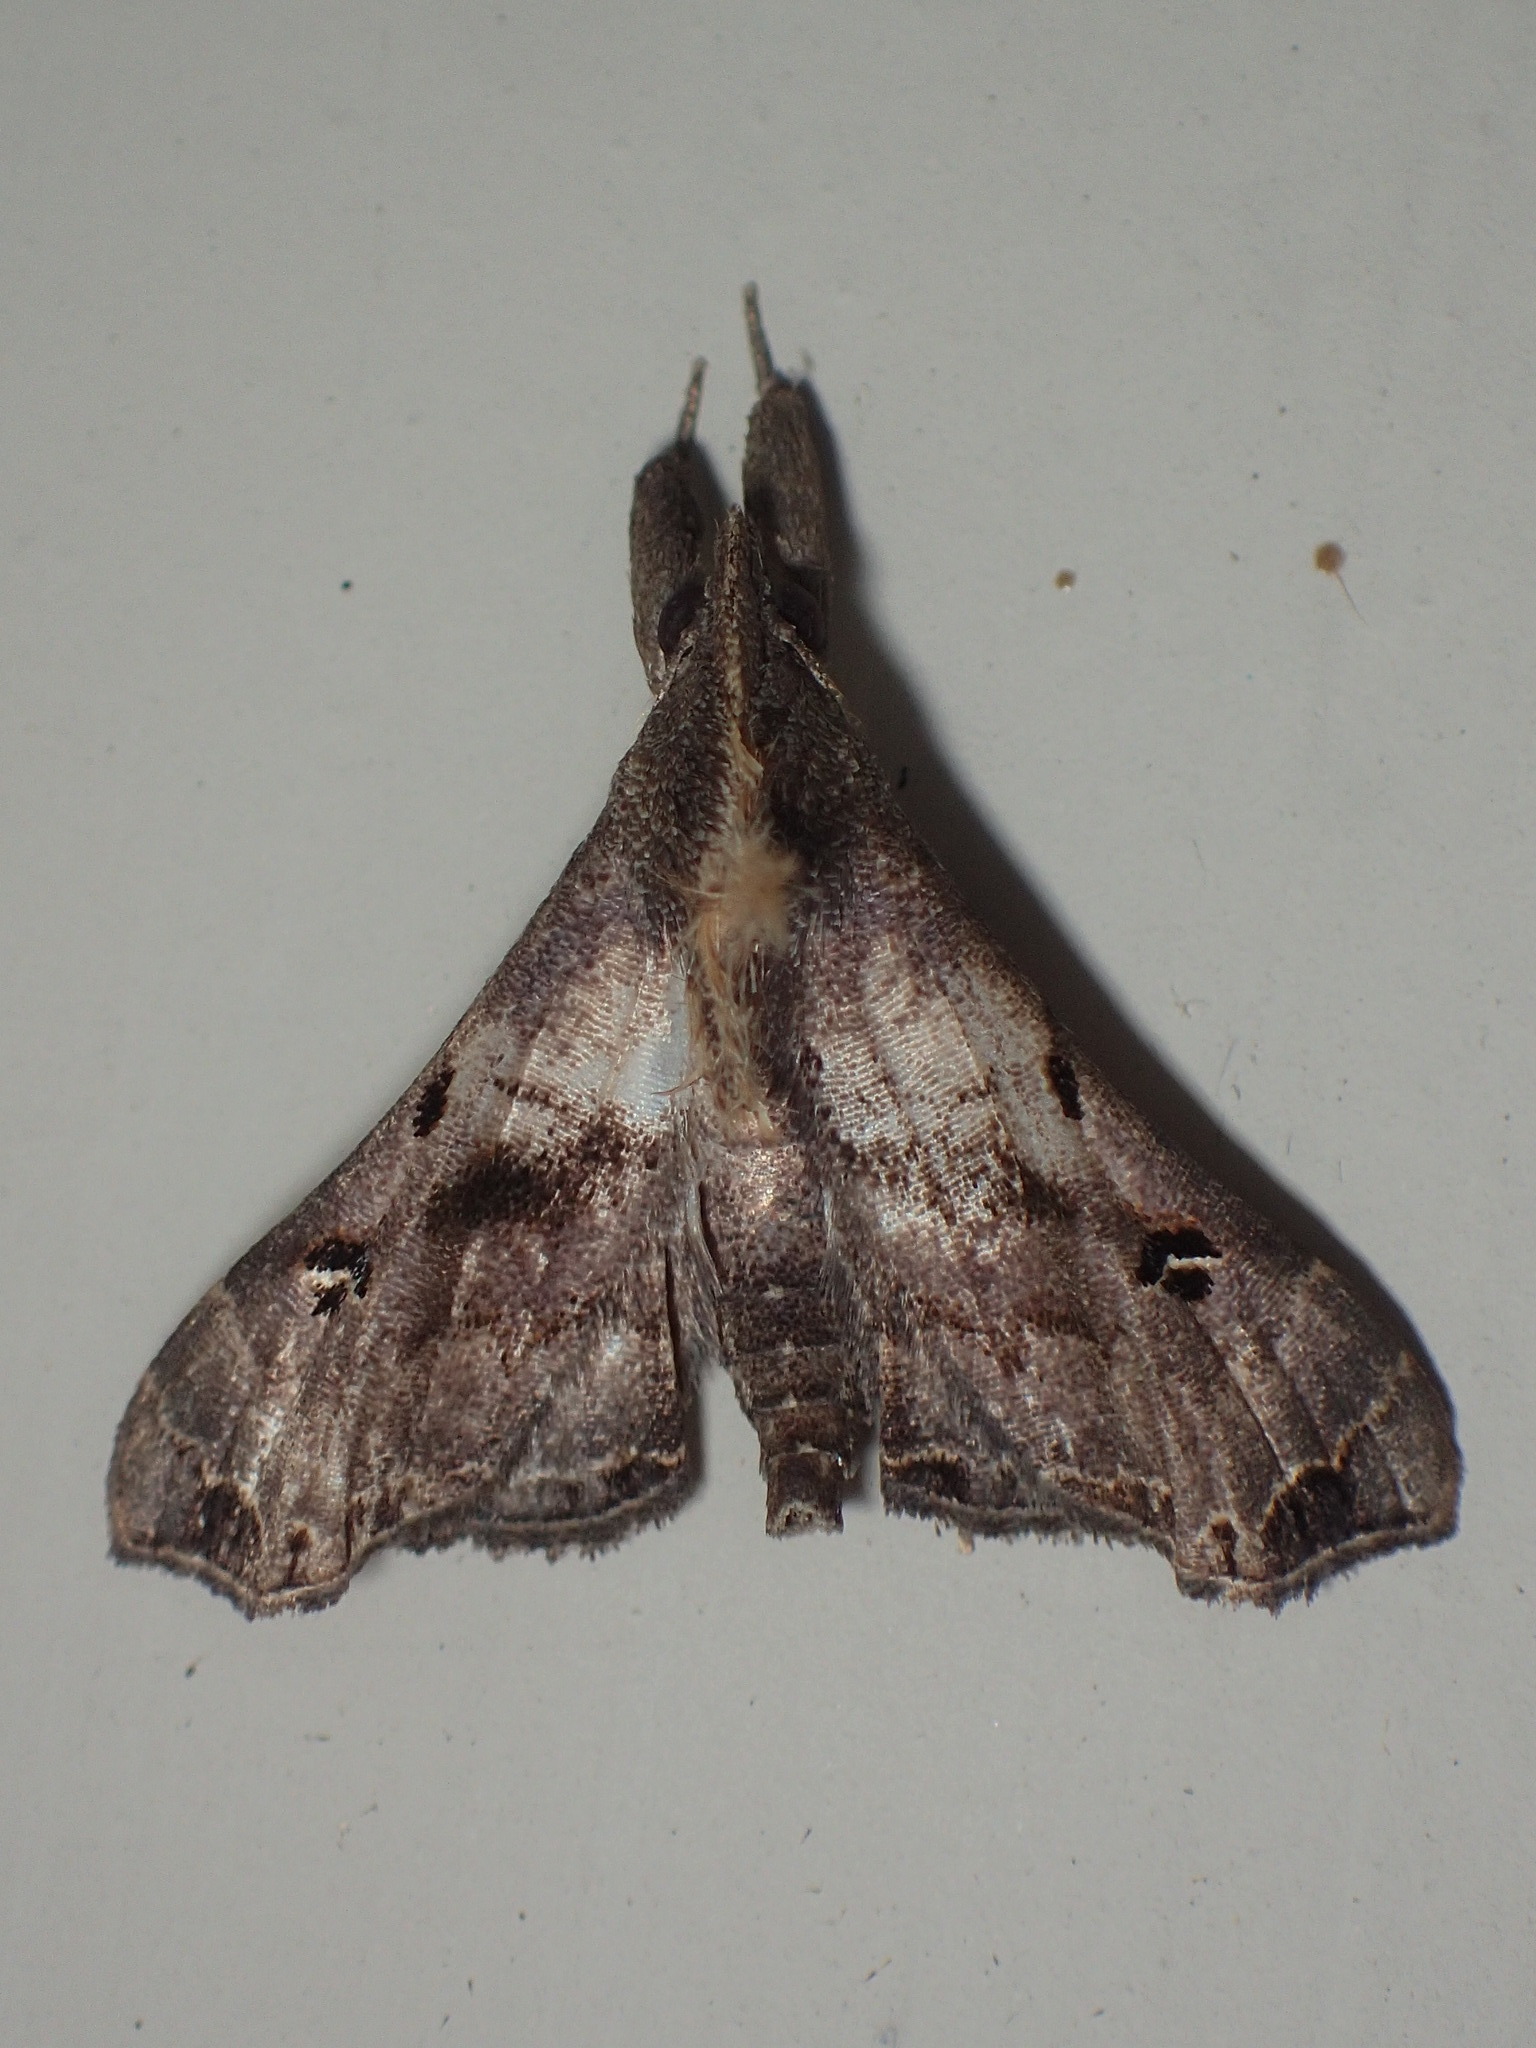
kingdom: Animalia
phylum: Arthropoda
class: Insecta
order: Lepidoptera
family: Erebidae
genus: Palthis
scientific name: Palthis asopialis
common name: Faint-spotted palthis moth
